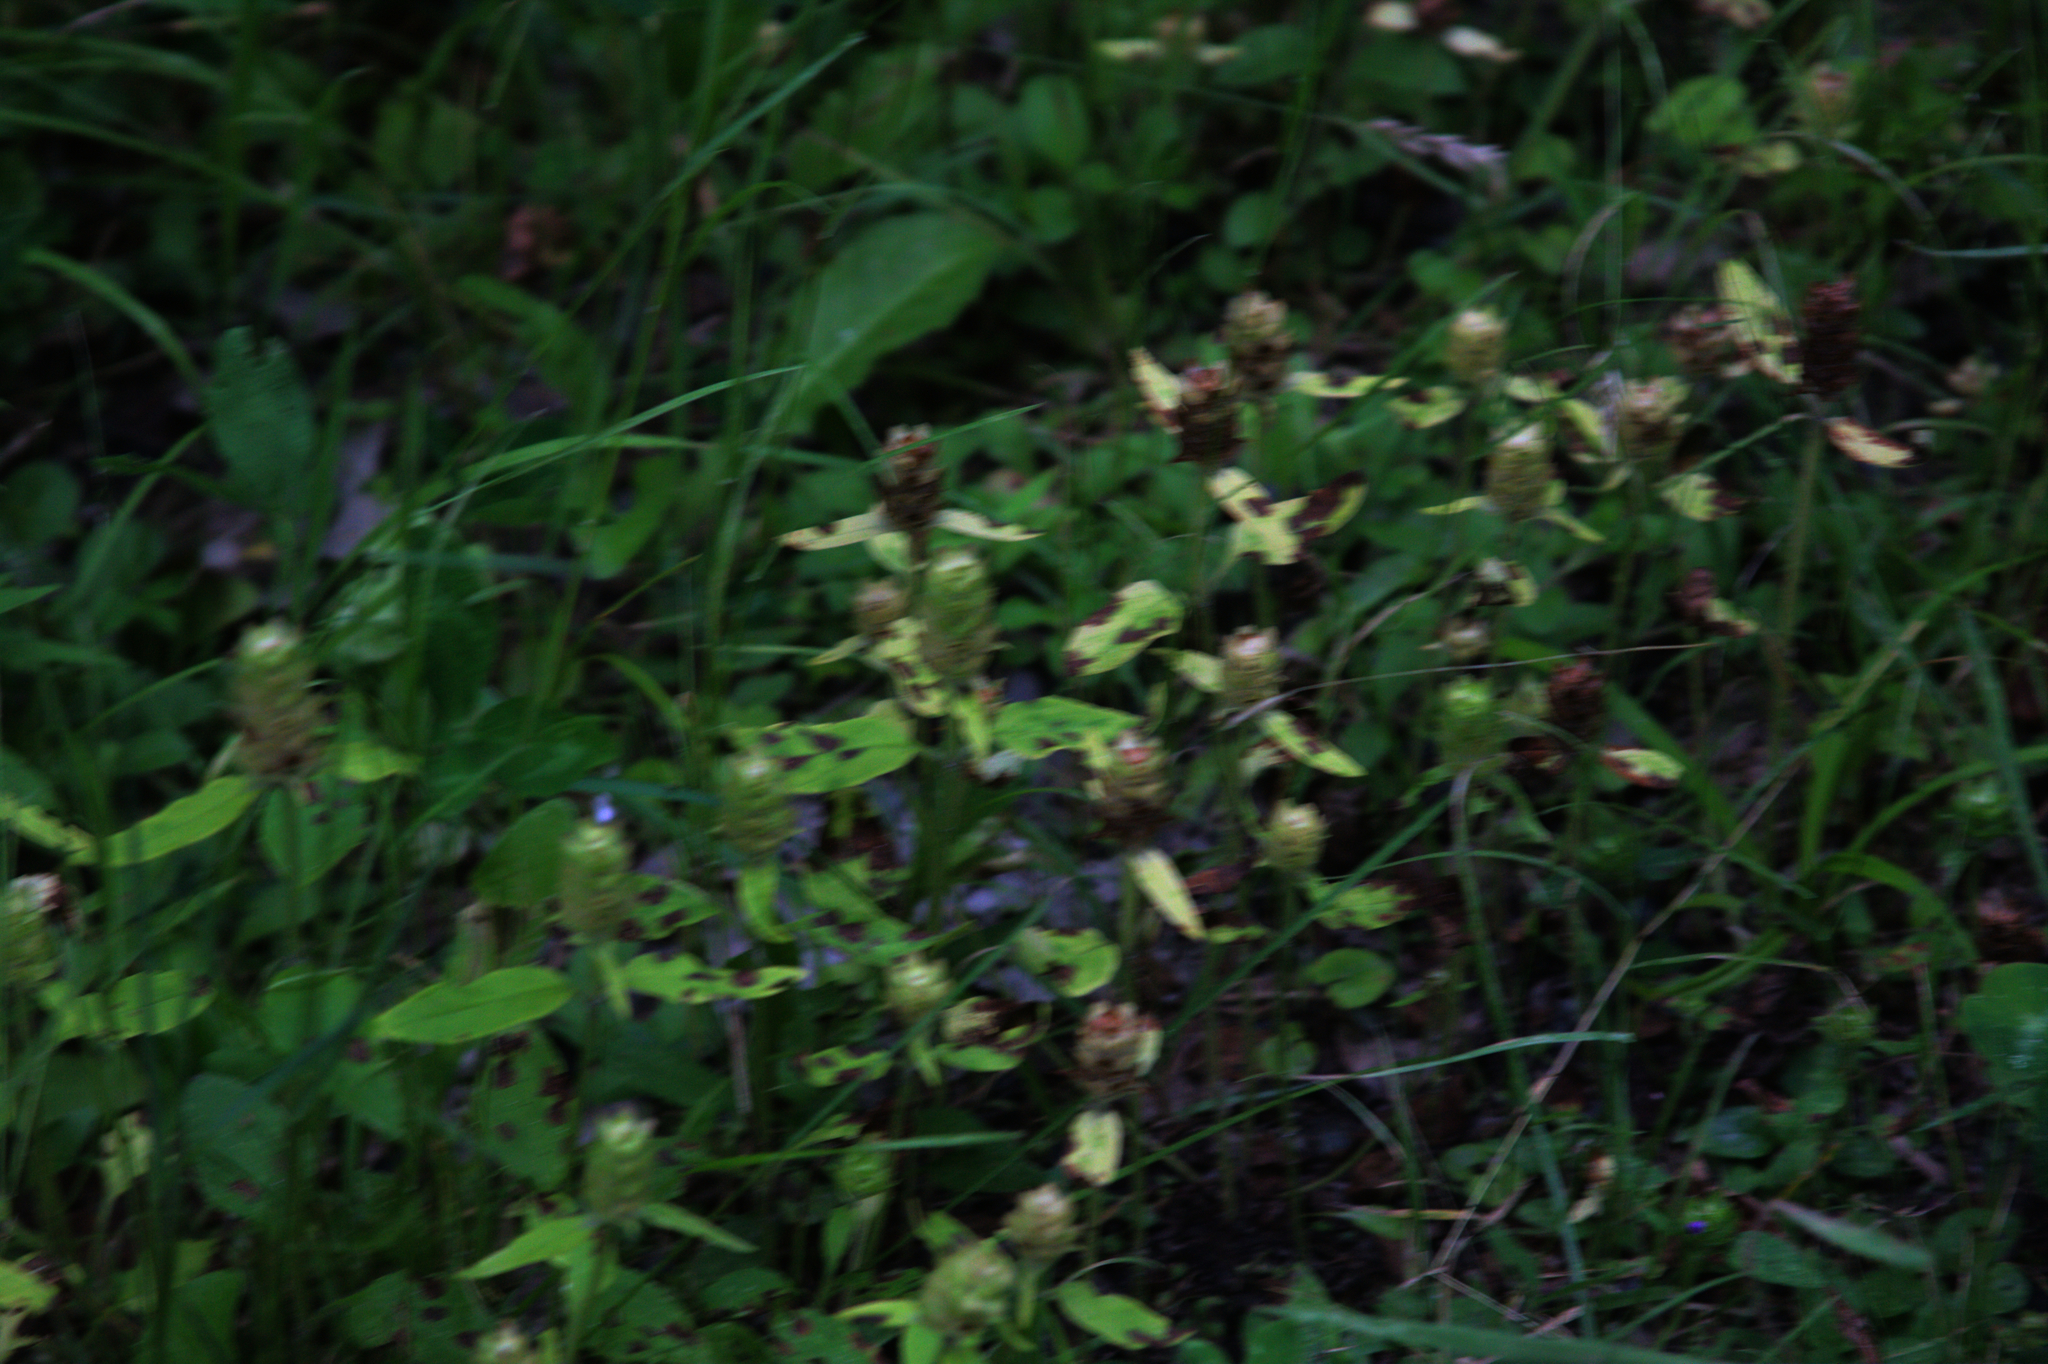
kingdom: Plantae
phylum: Tracheophyta
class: Magnoliopsida
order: Lamiales
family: Lamiaceae
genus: Prunella
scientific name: Prunella vulgaris
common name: Heal-all
